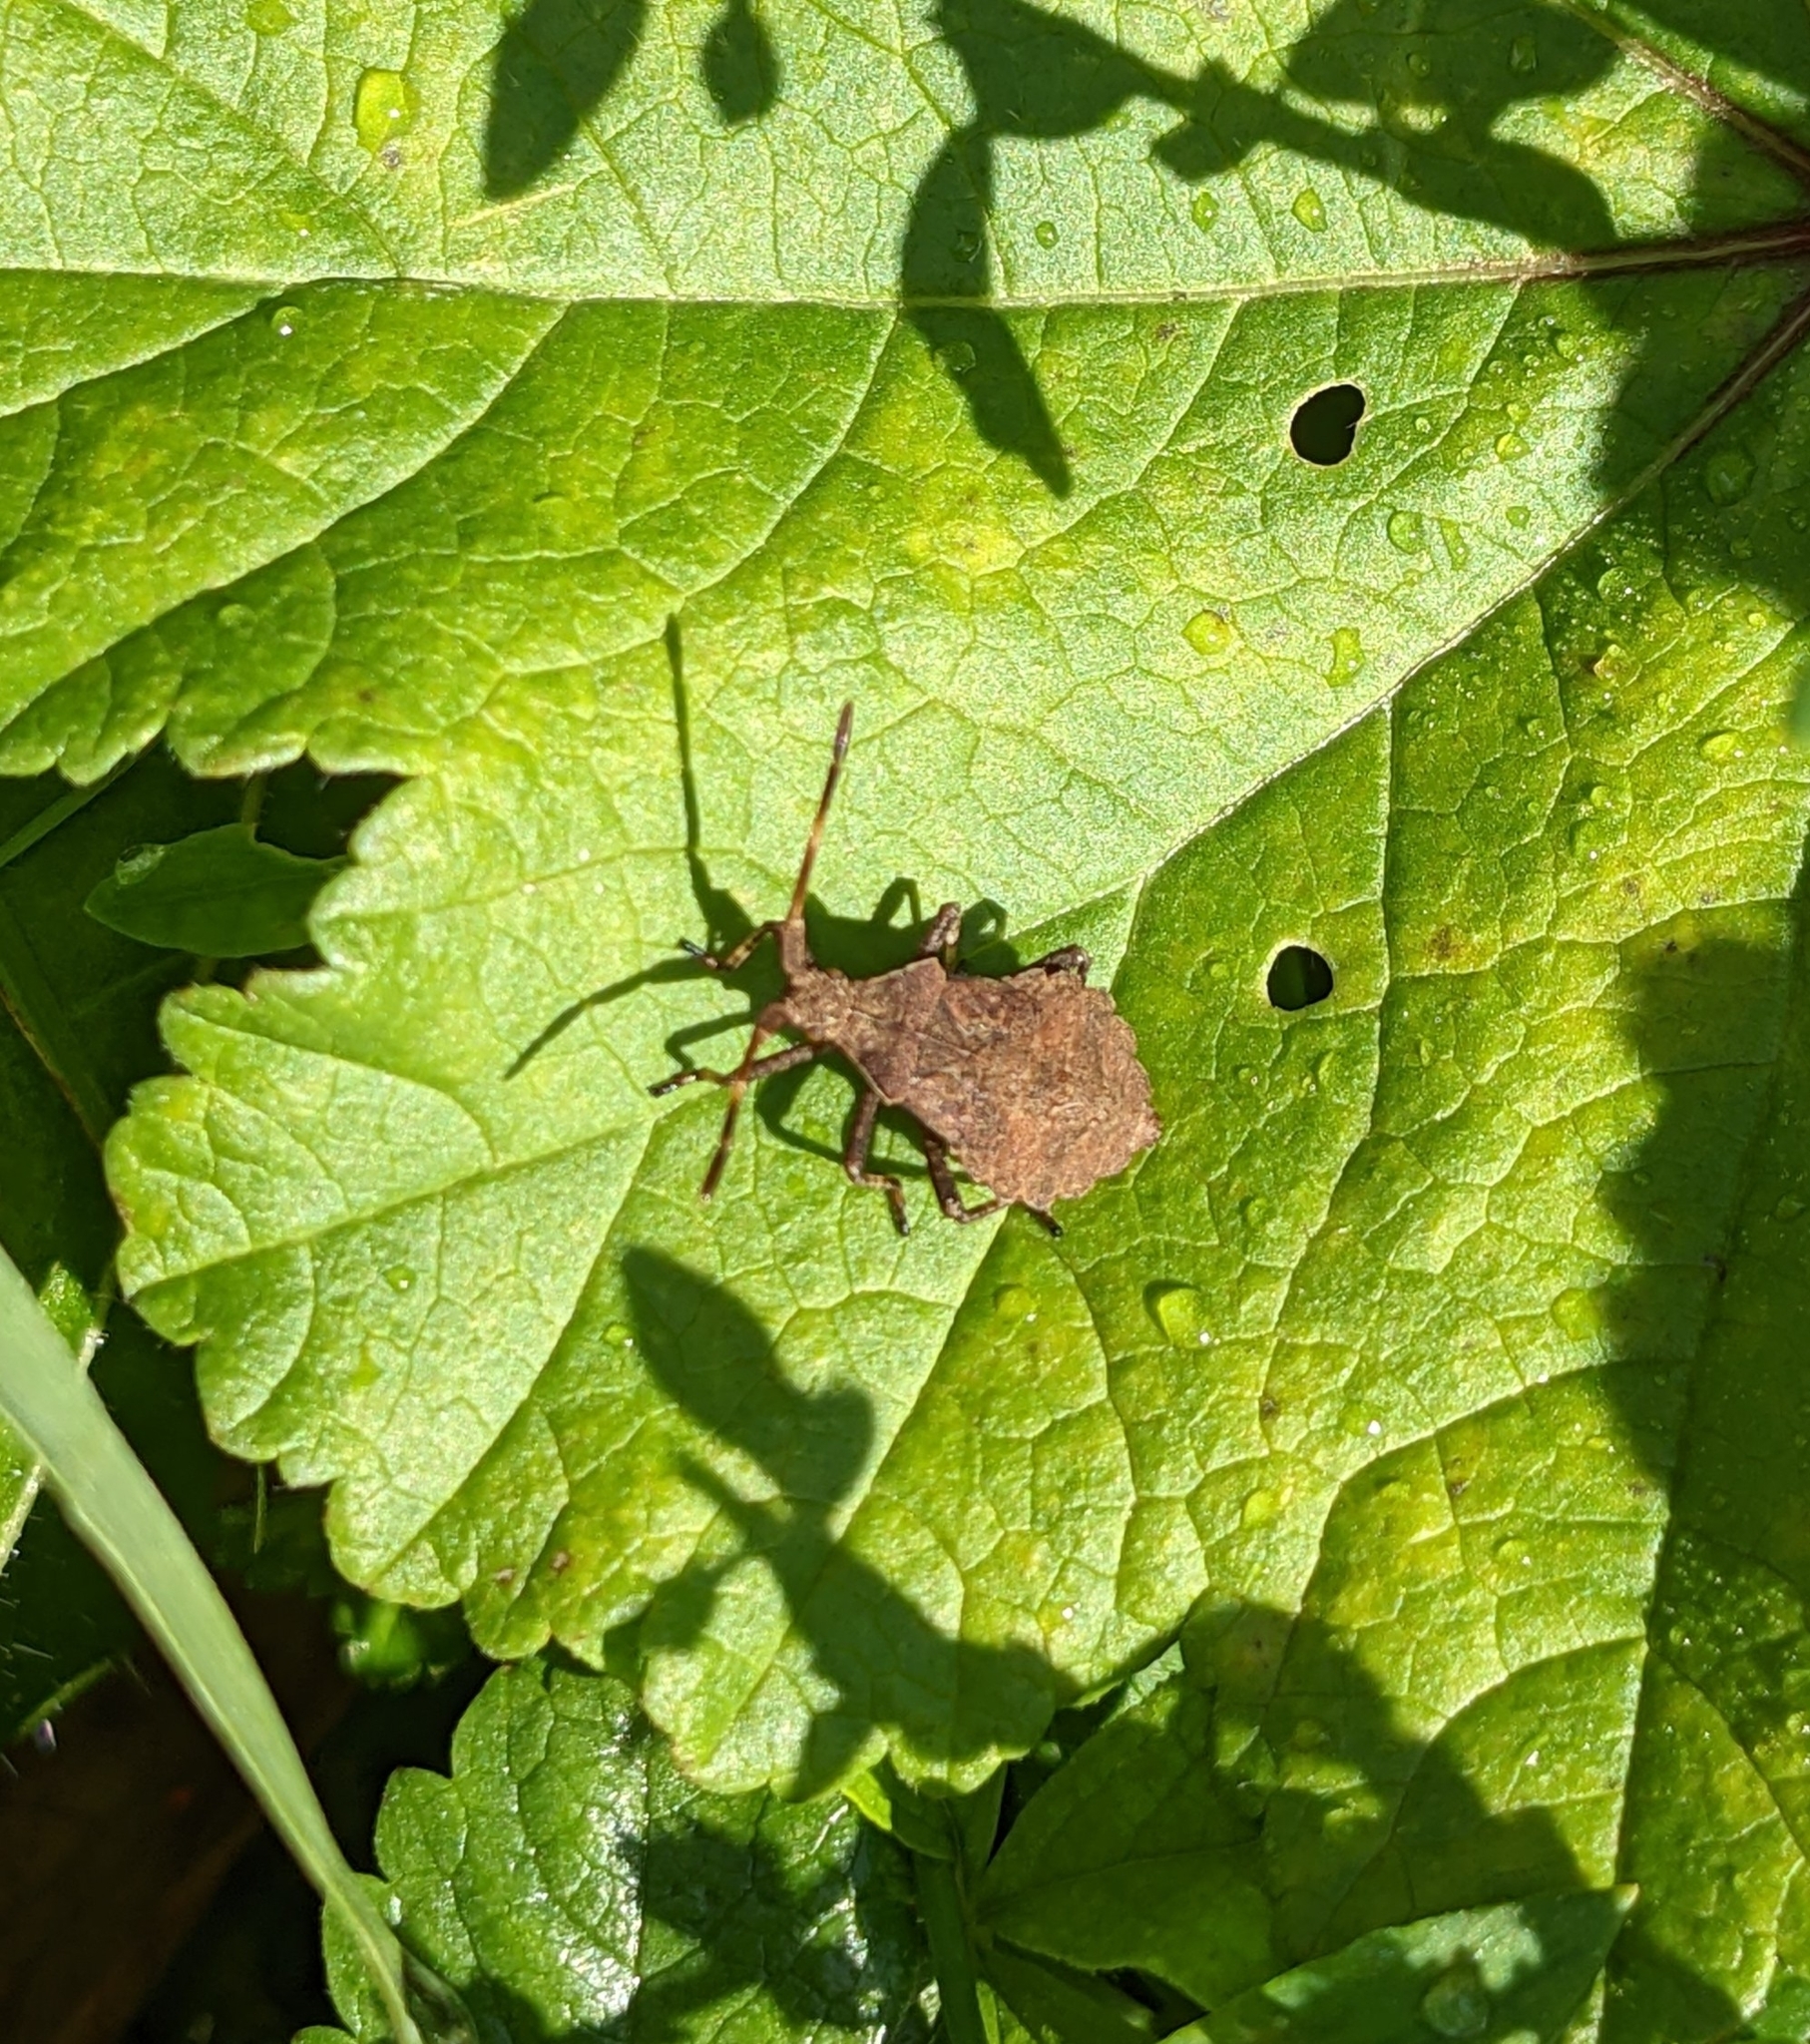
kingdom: Animalia
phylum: Arthropoda
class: Insecta
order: Hemiptera
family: Coreidae
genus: Coreus
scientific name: Coreus marginatus
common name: Dock bug
